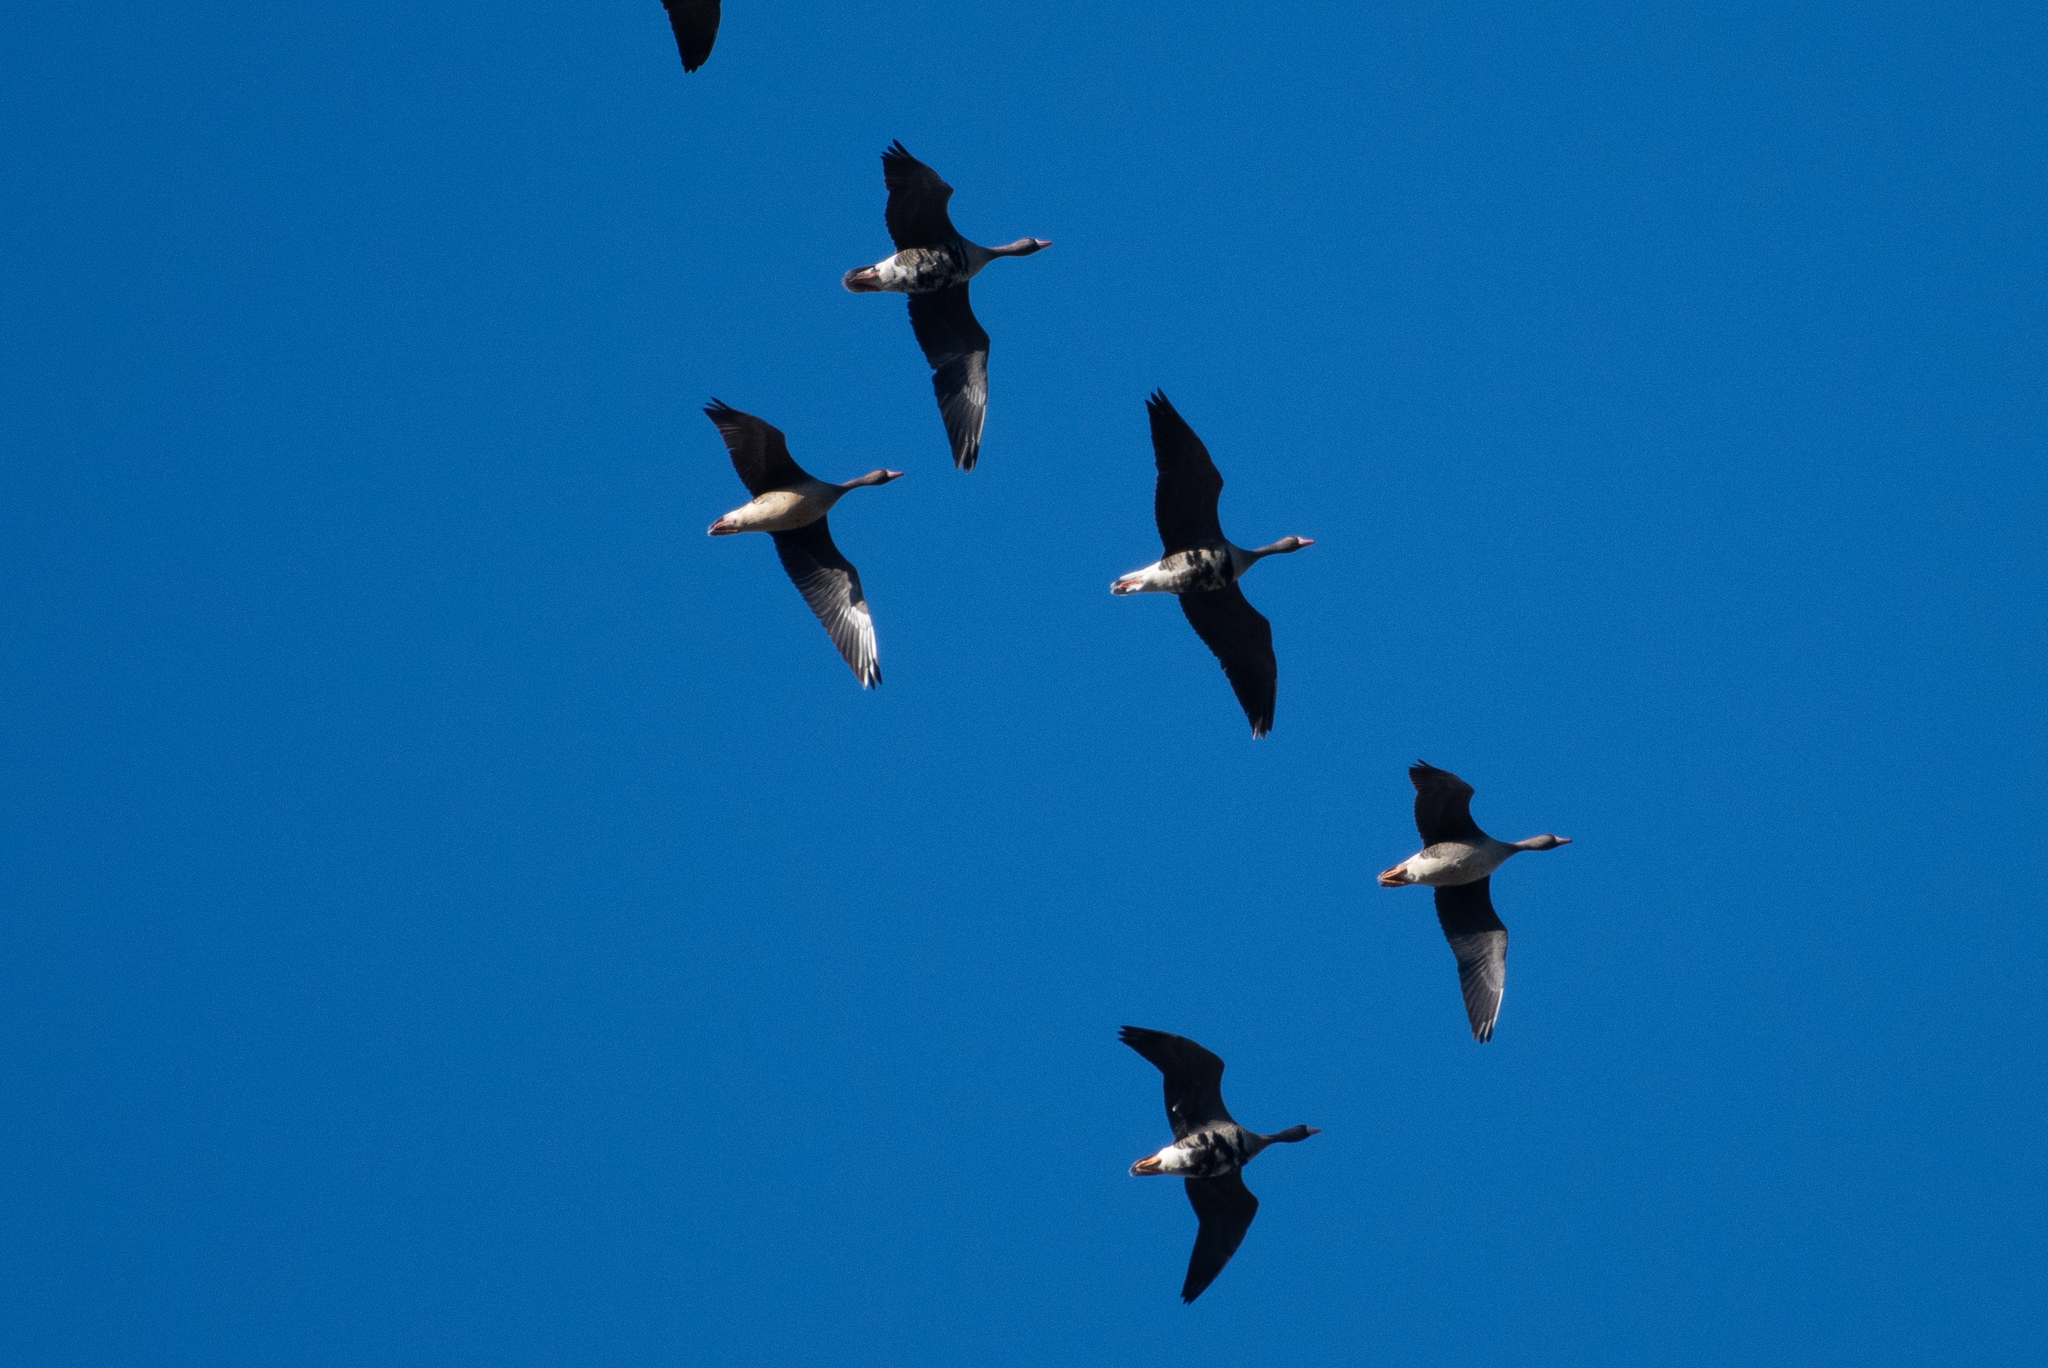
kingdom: Animalia
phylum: Chordata
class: Aves
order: Anseriformes
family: Anatidae
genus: Anser
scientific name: Anser albifrons
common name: Greater white-fronted goose
